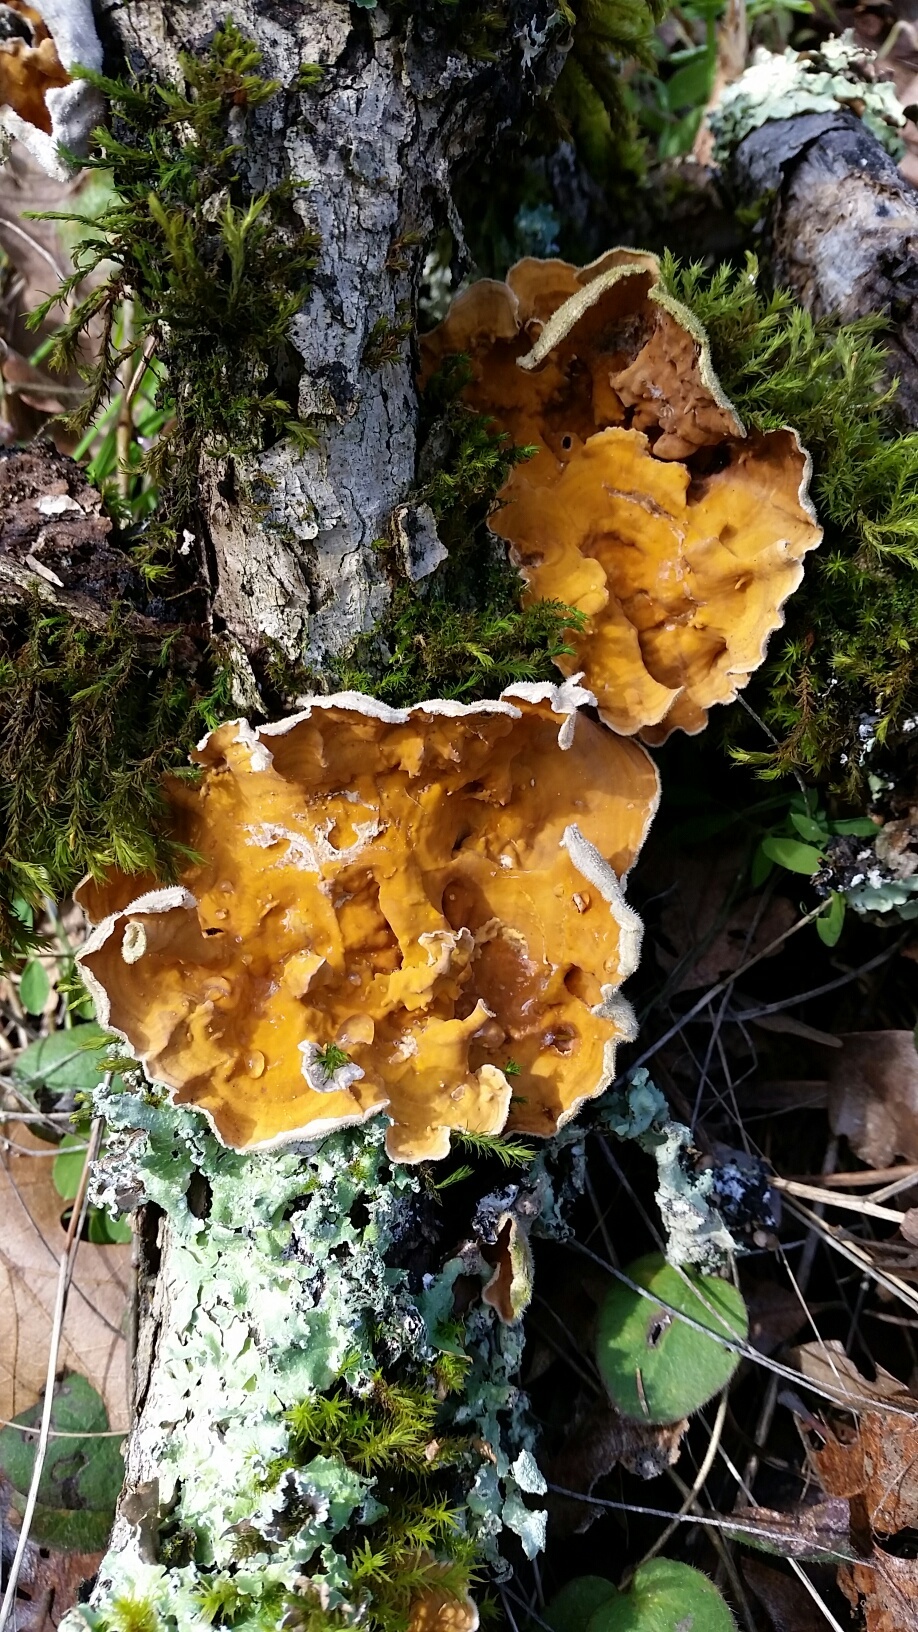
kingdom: Fungi
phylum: Basidiomycota
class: Agaricomycetes
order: Russulales
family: Stereaceae
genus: Stereum
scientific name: Stereum hirsutum
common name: Hairy curtain crust
